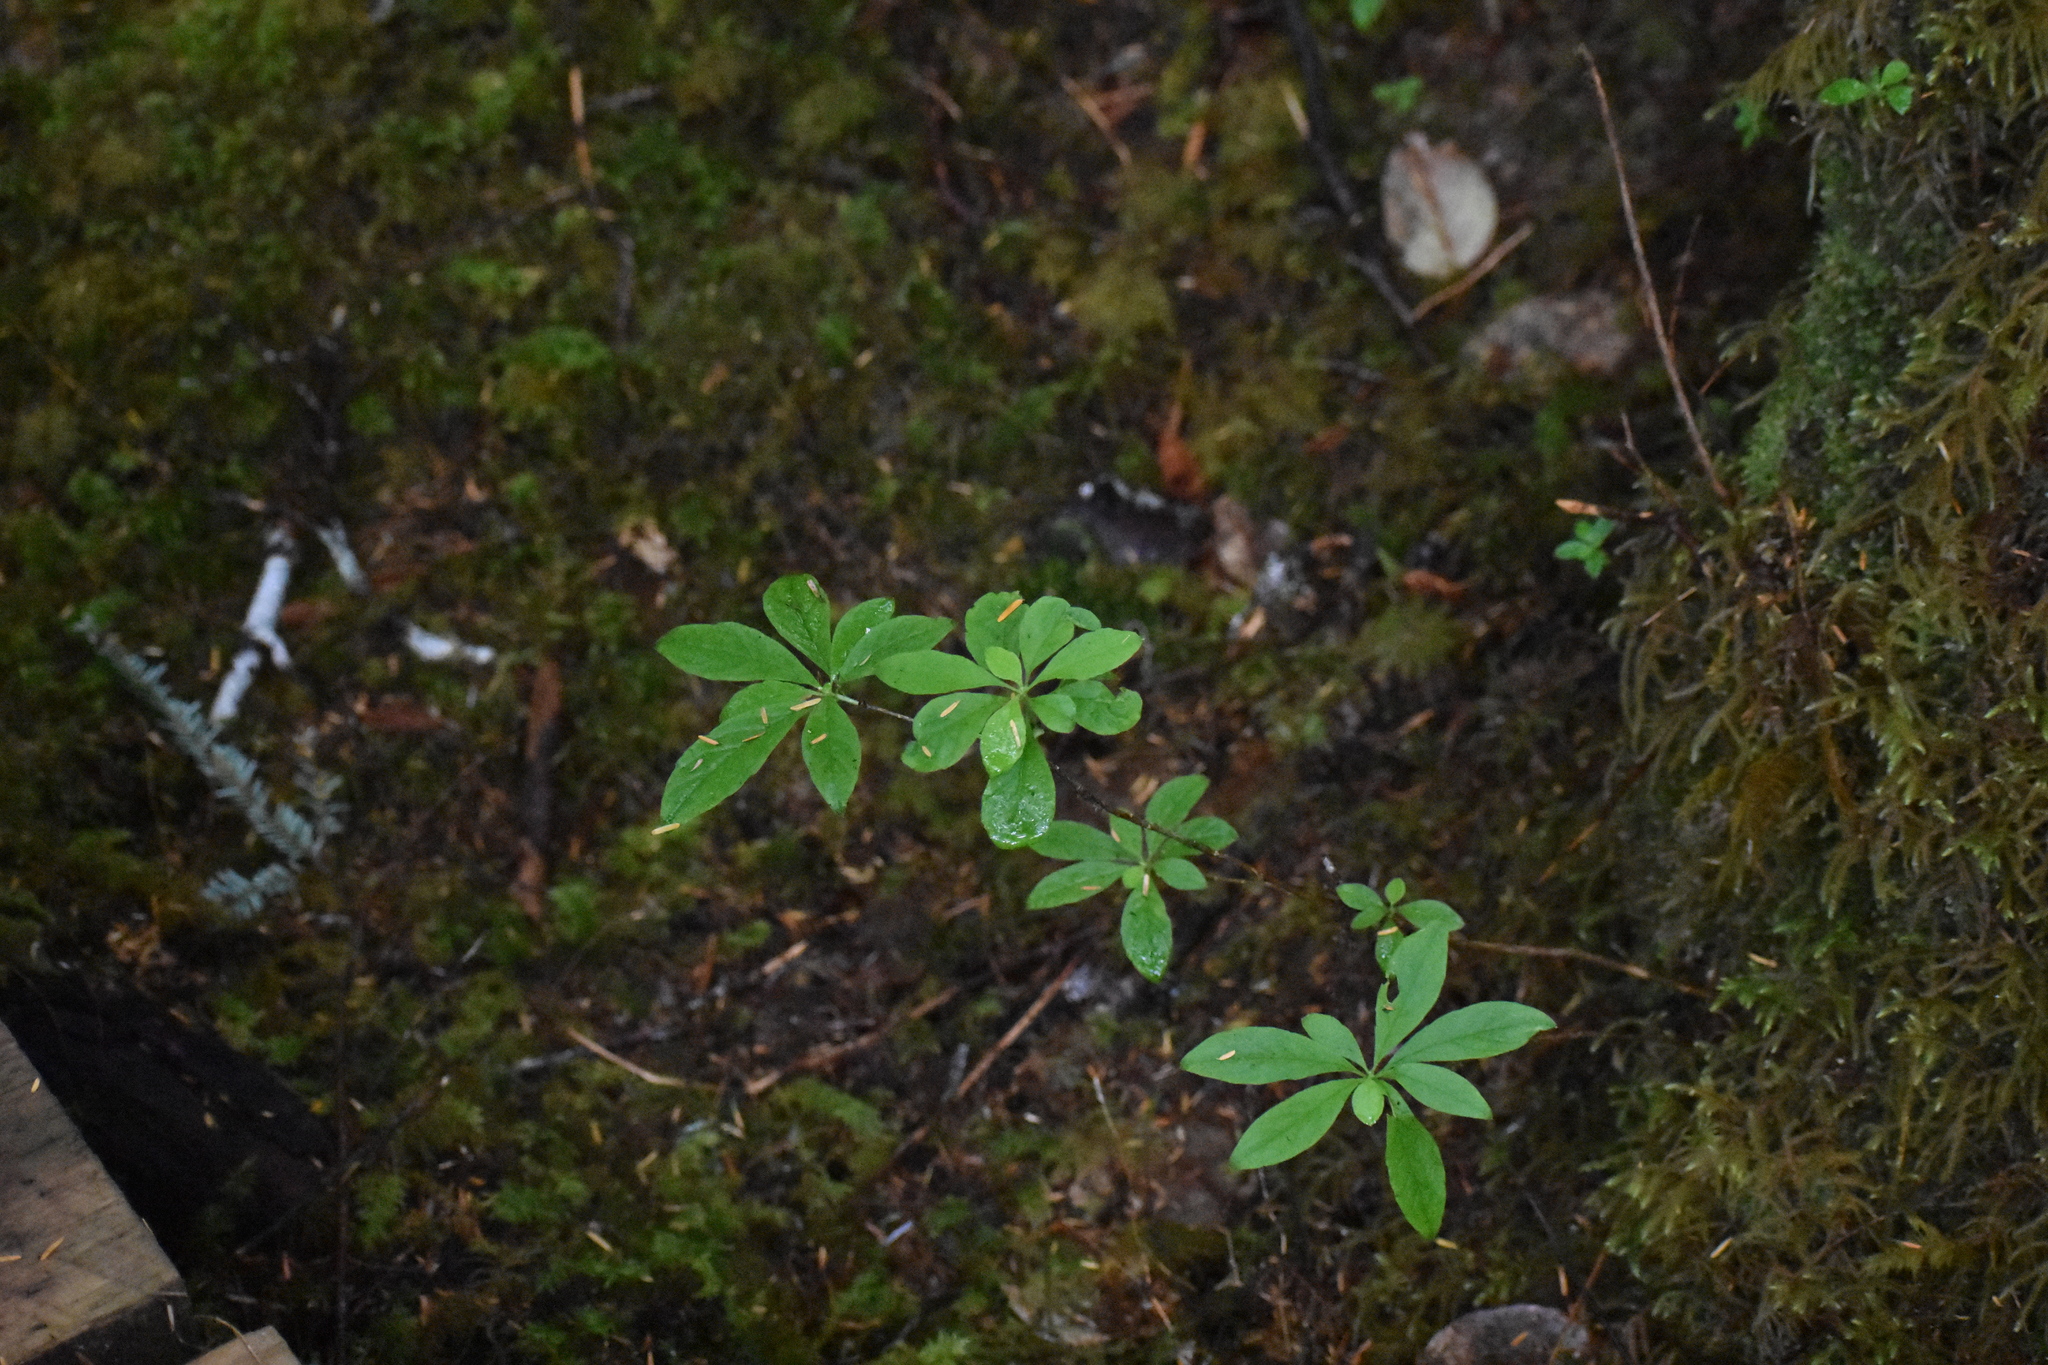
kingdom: Plantae
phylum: Tracheophyta
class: Magnoliopsida
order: Ericales
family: Ericaceae
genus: Rhododendron
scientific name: Rhododendron menziesii
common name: Pacific menziesia
